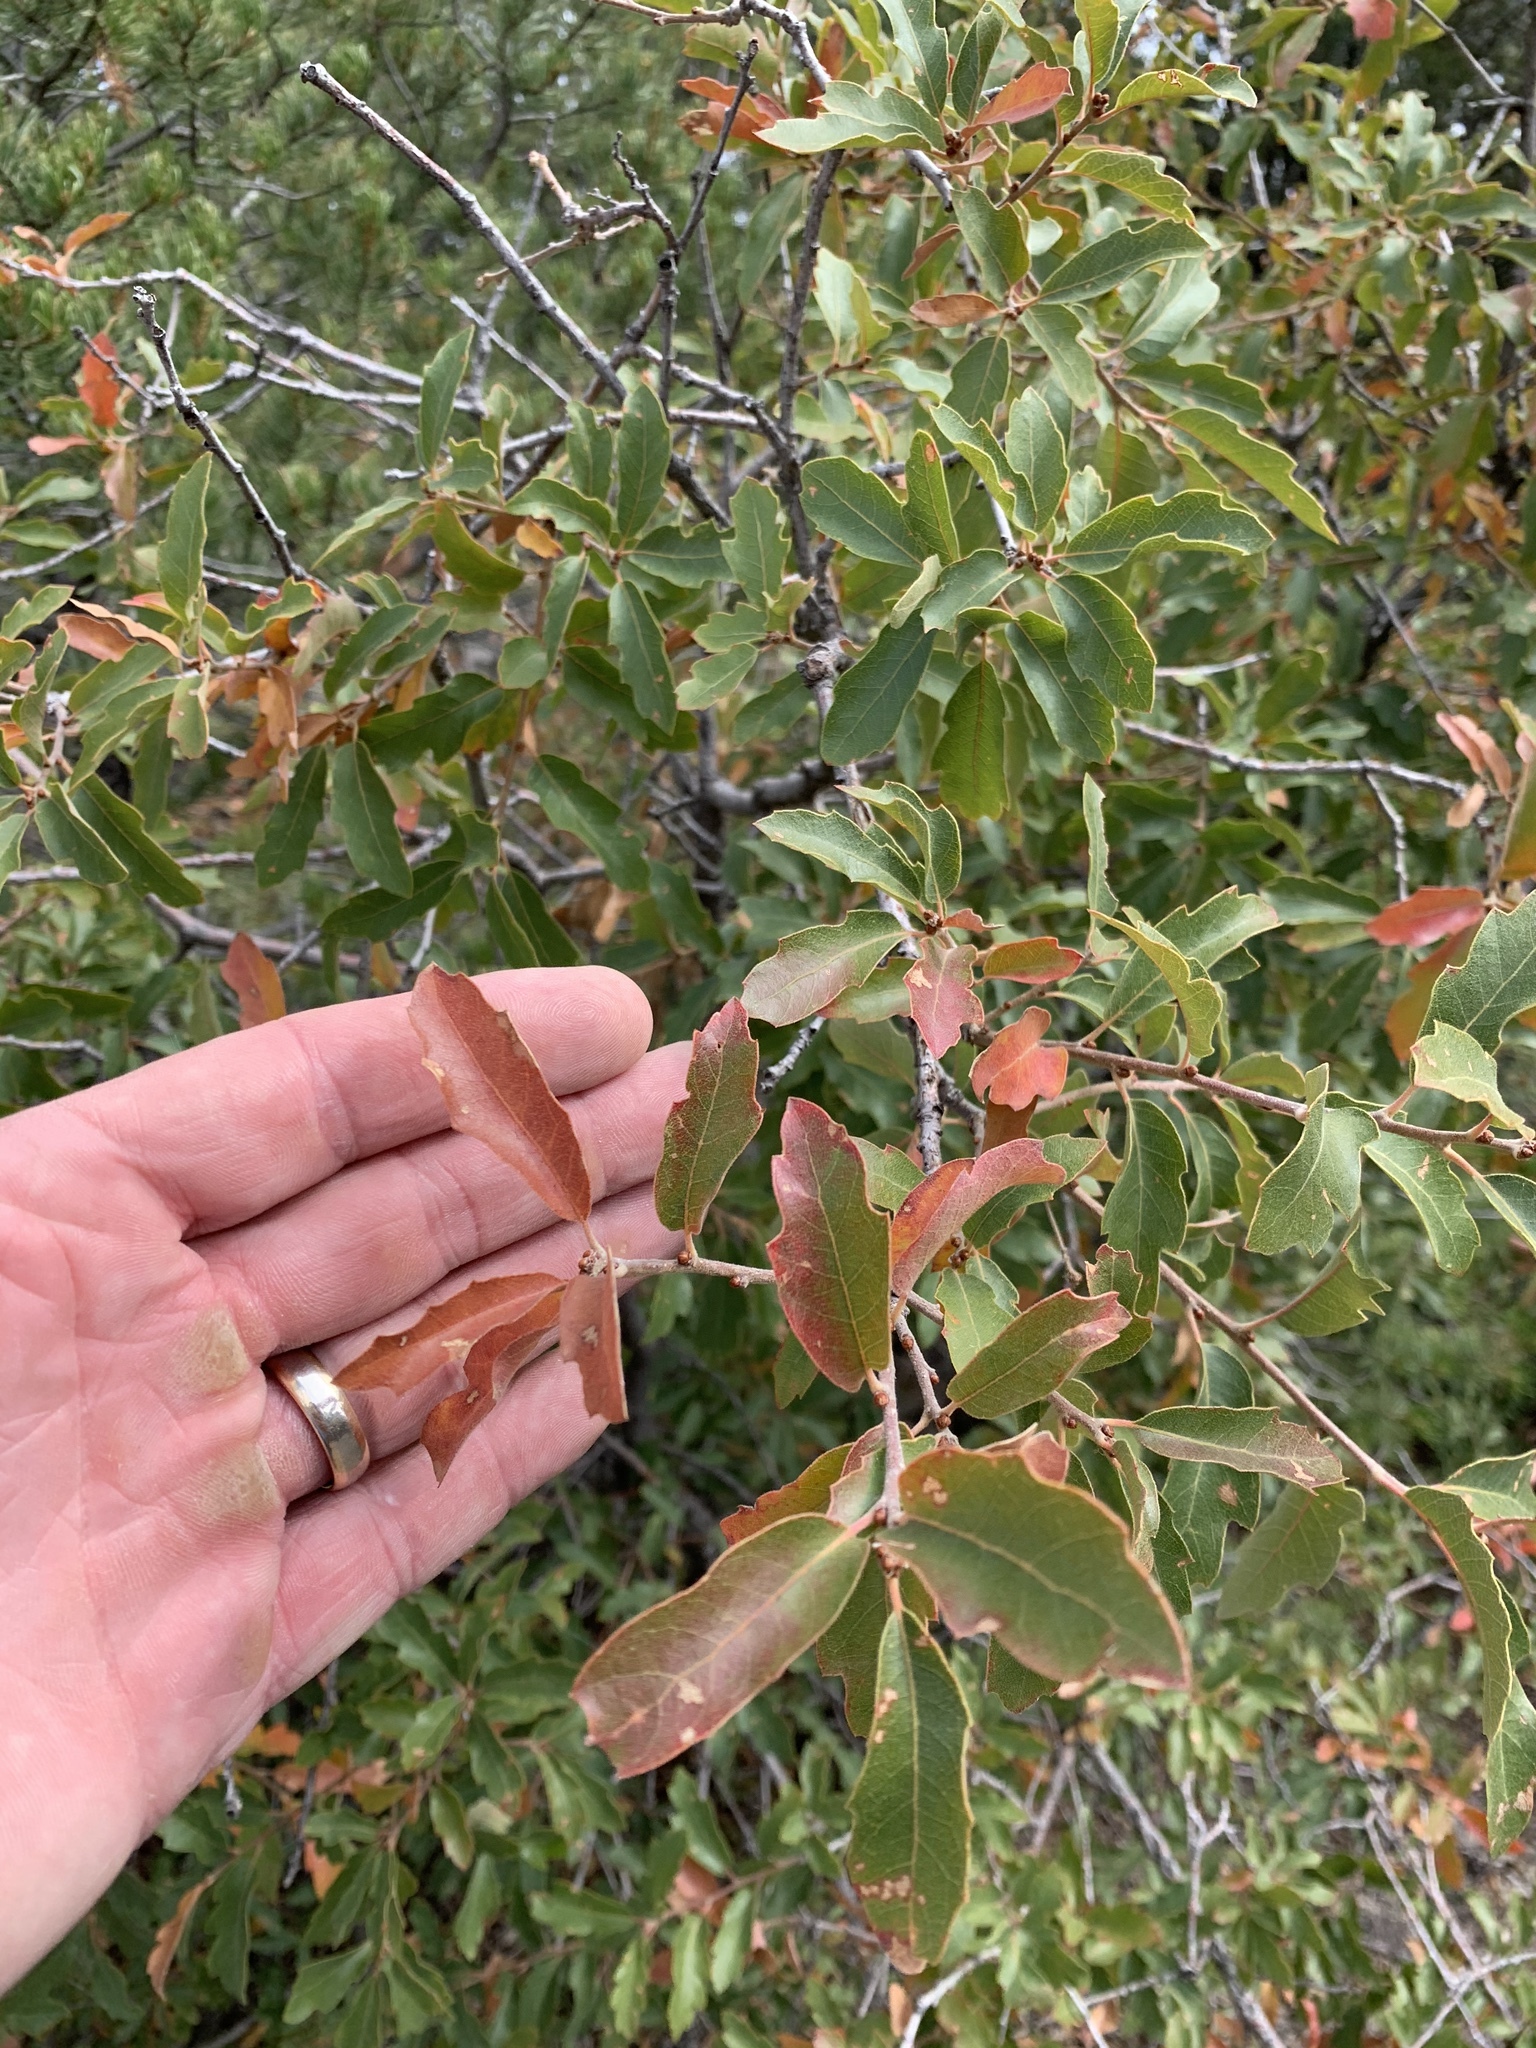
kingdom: Plantae
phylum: Tracheophyta
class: Magnoliopsida
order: Fagales
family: Fagaceae
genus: Quercus
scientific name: Quercus undulata
